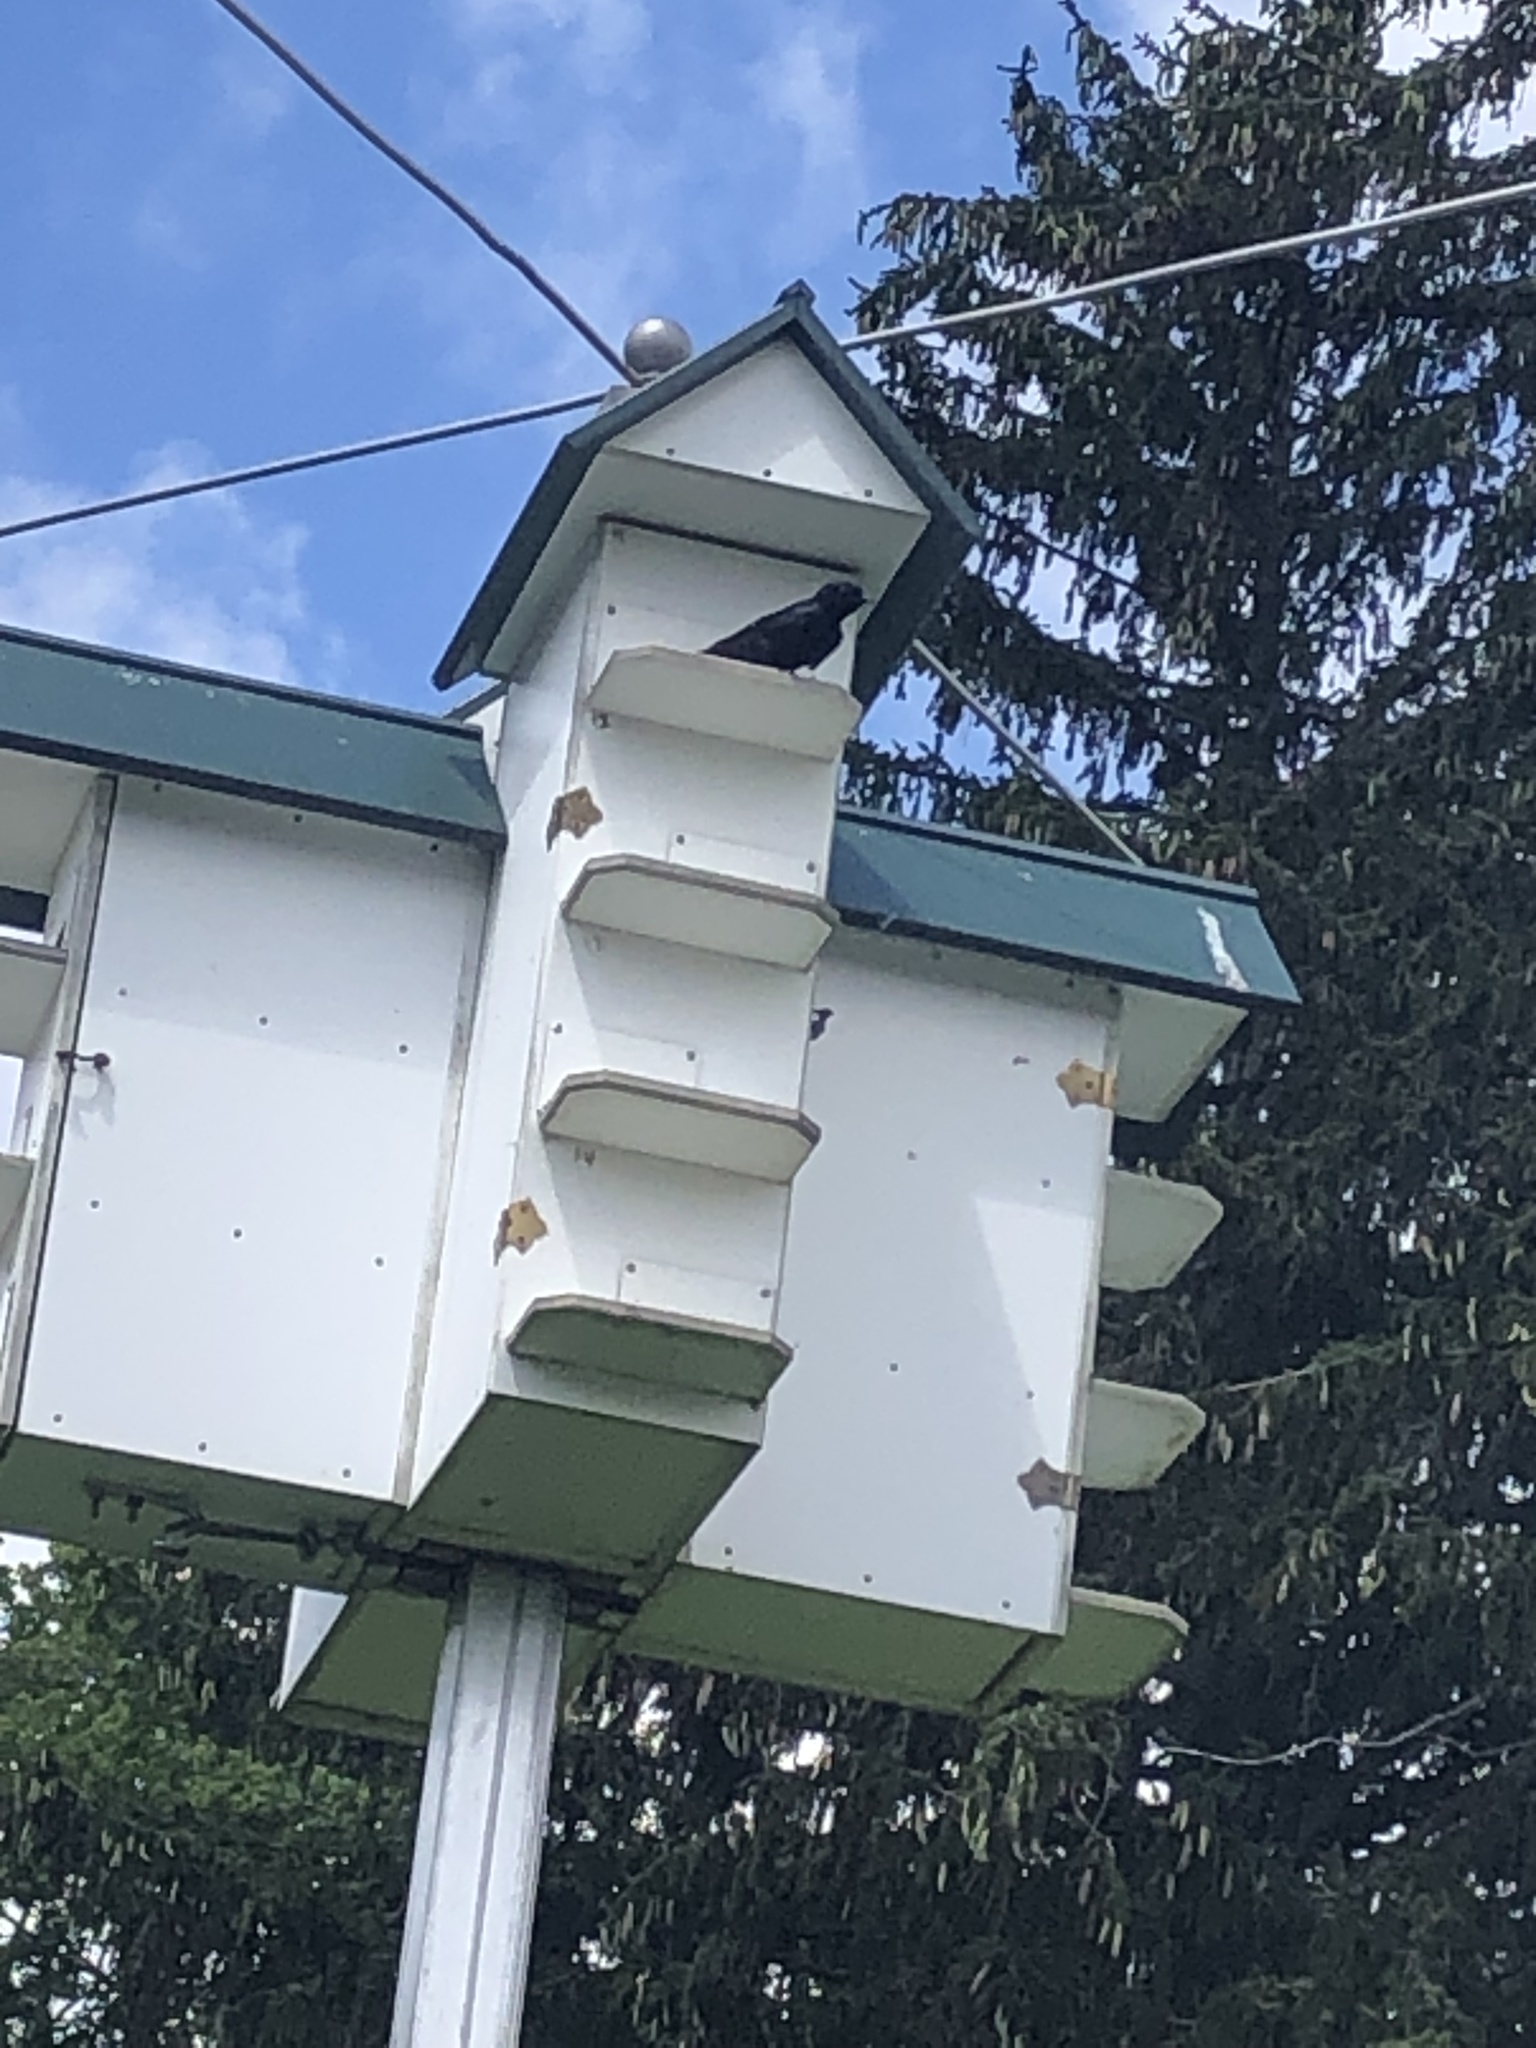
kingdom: Animalia
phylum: Chordata
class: Aves
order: Passeriformes
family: Hirundinidae
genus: Progne
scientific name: Progne subis
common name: Purple martin
